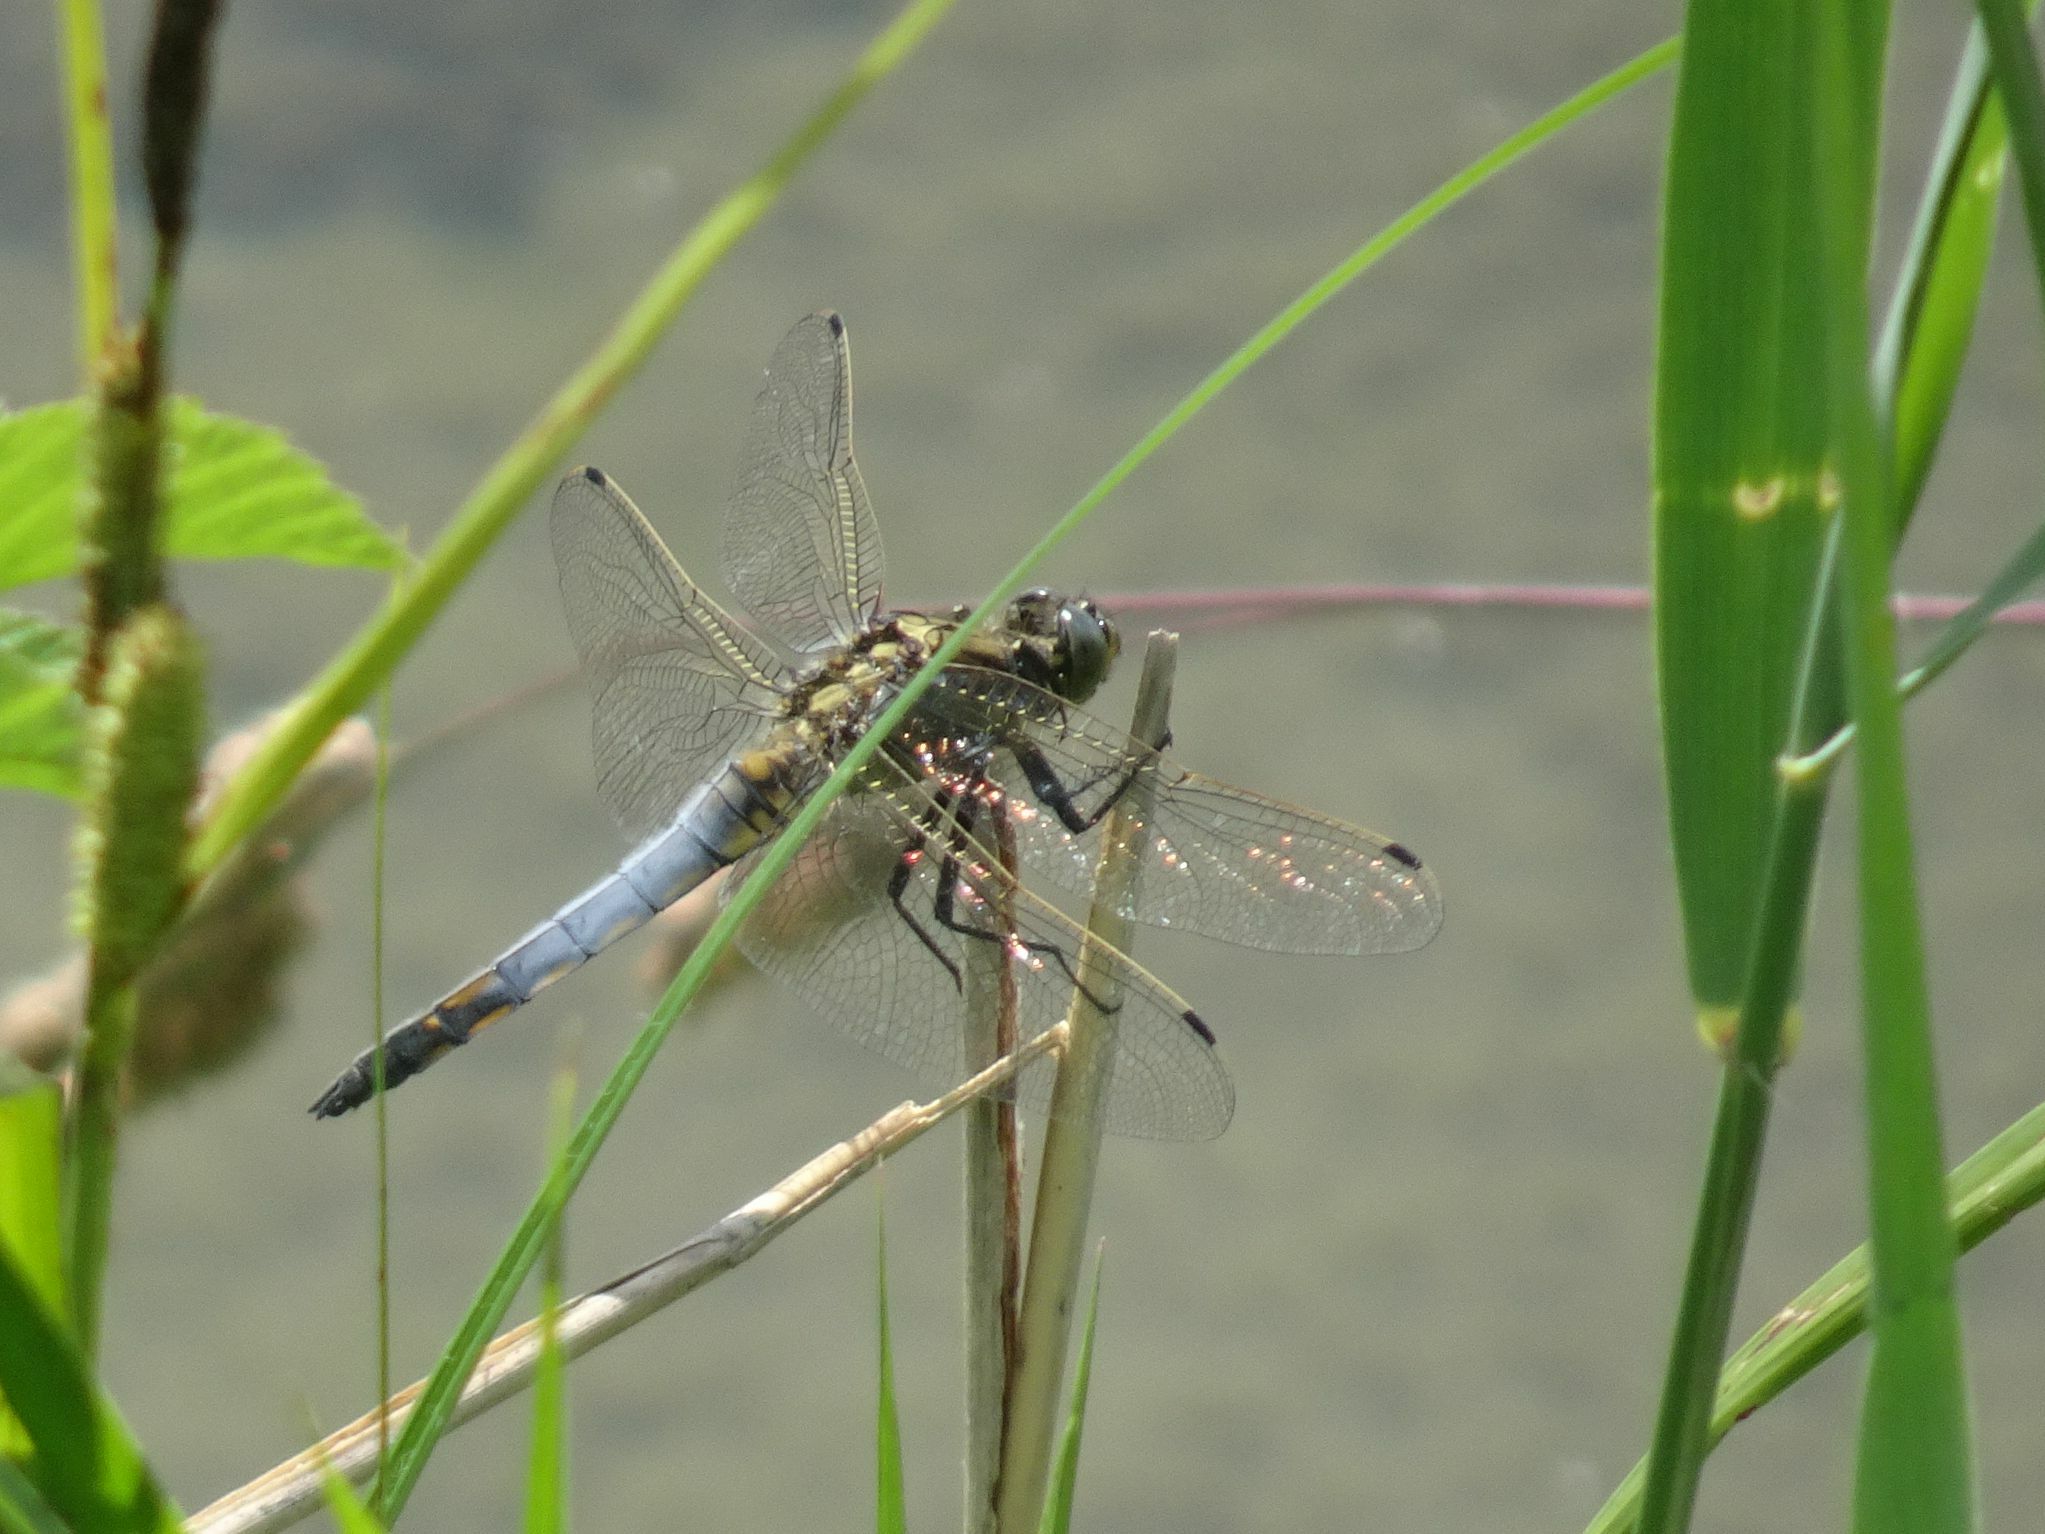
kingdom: Animalia
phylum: Arthropoda
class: Insecta
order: Odonata
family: Libellulidae
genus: Orthetrum
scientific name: Orthetrum cancellatum
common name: Black-tailed skimmer
